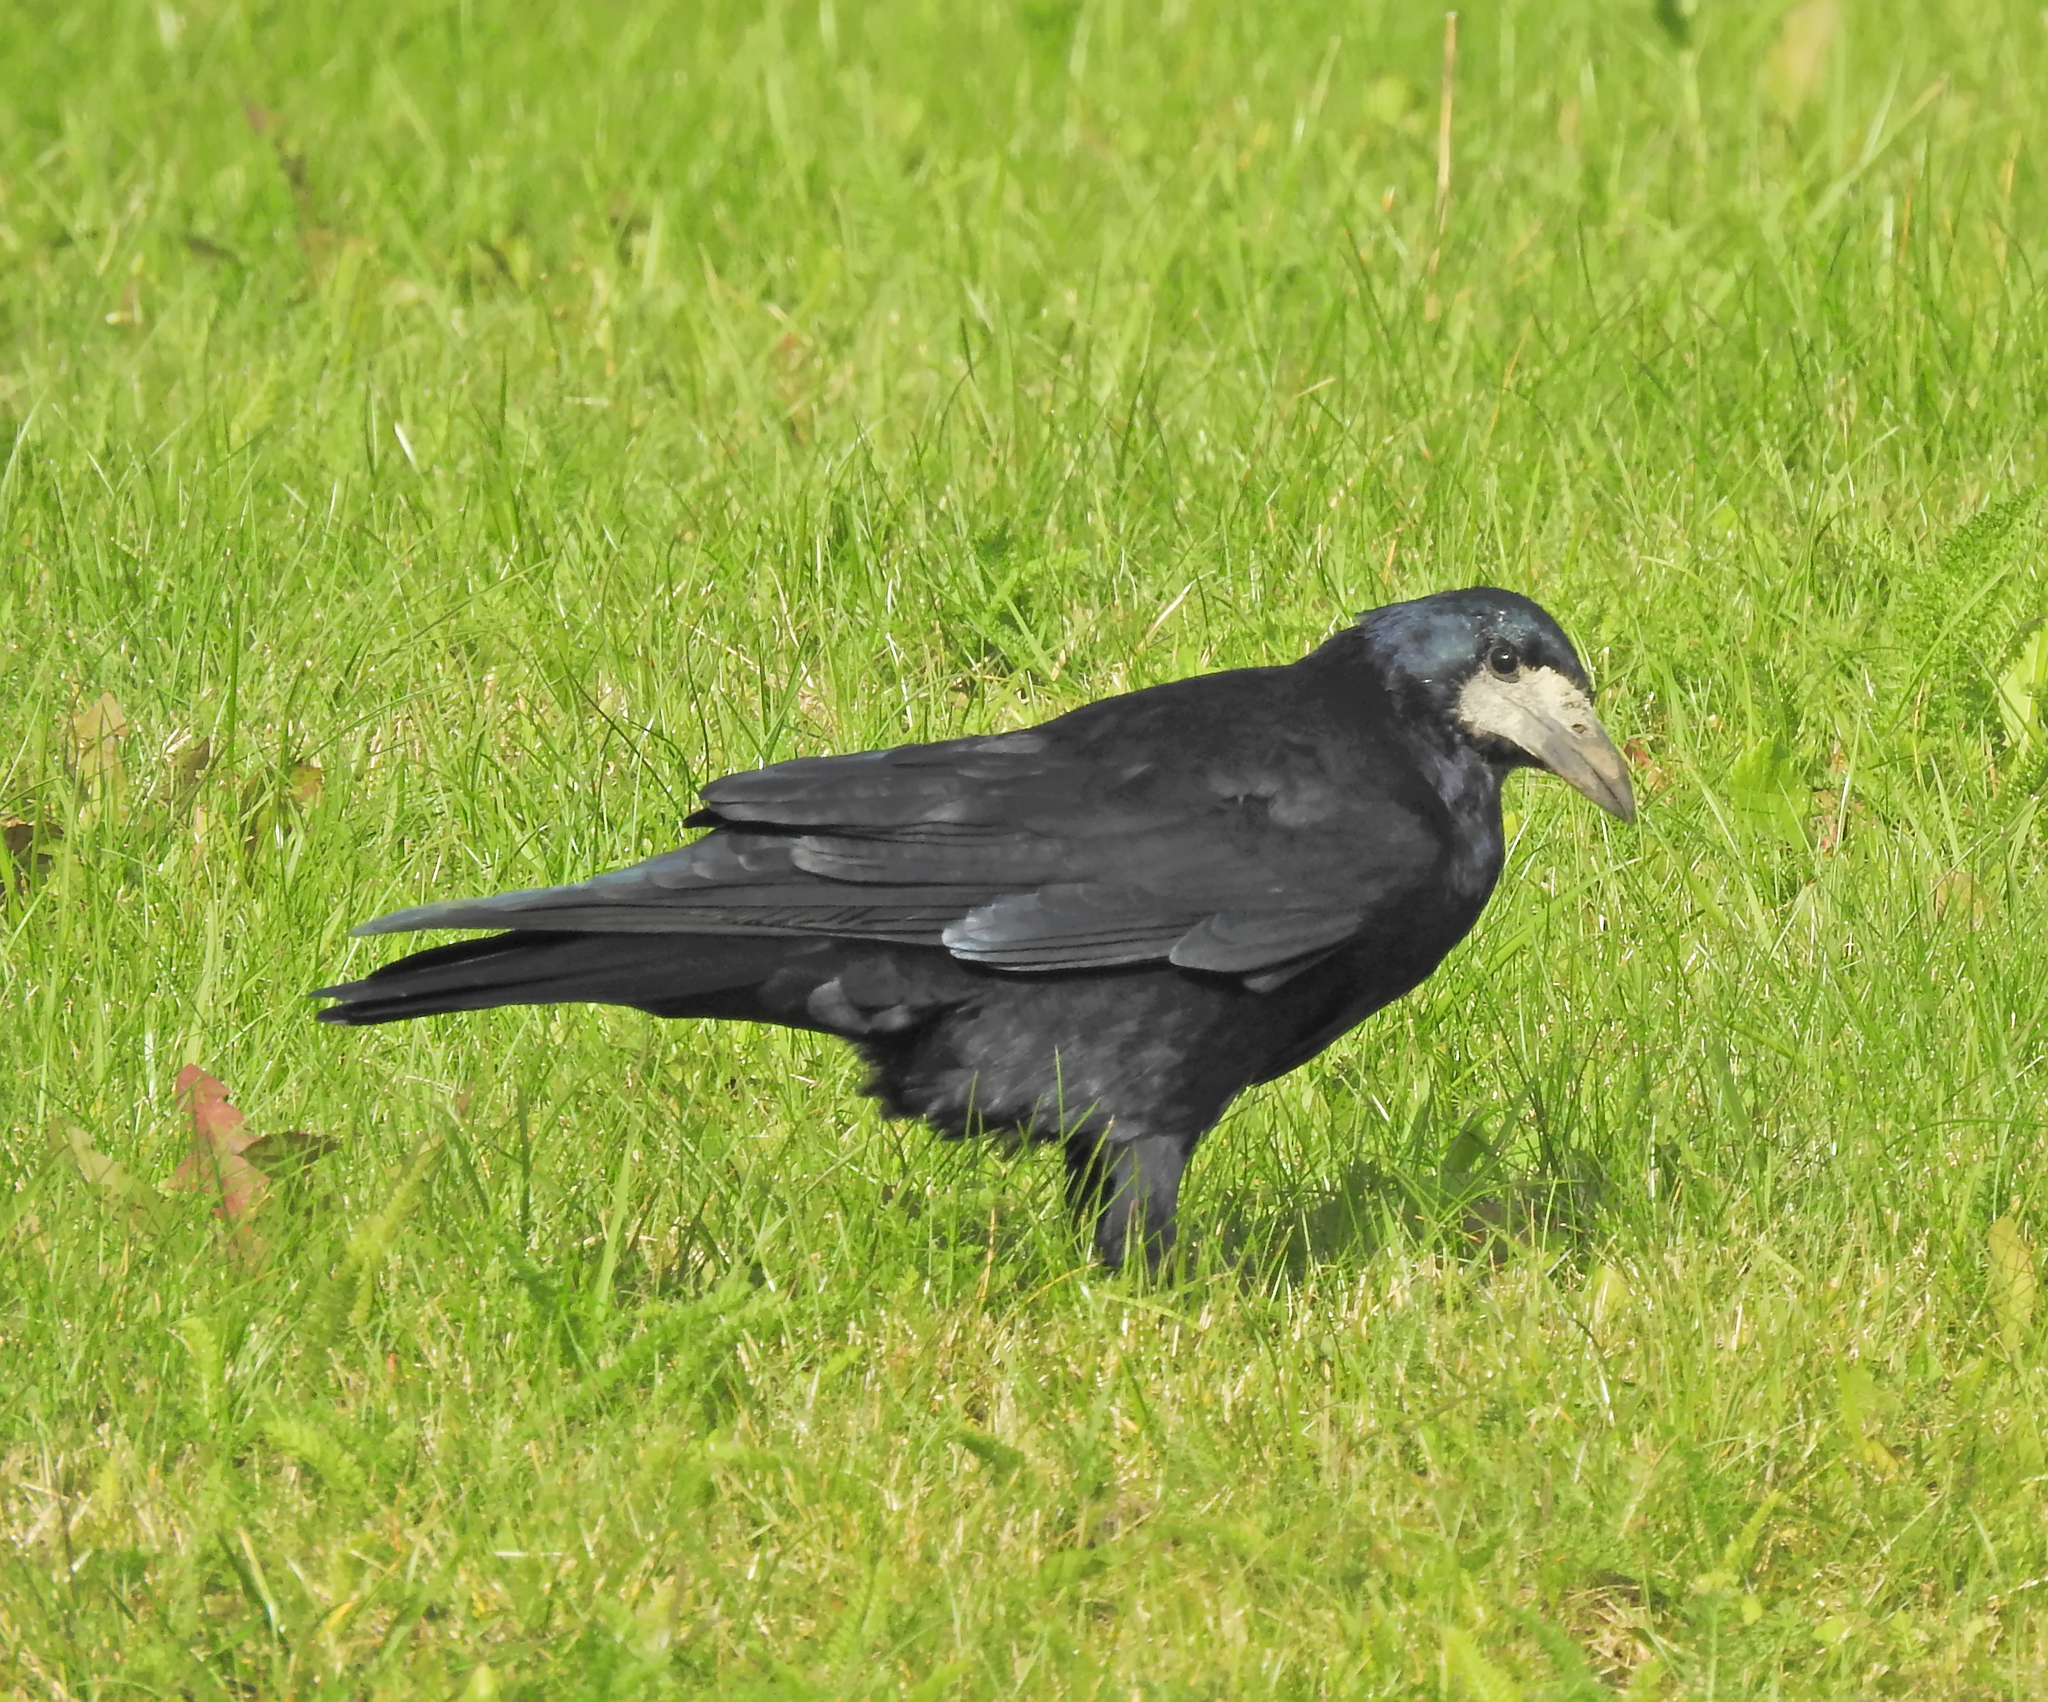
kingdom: Animalia
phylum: Chordata
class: Aves
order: Passeriformes
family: Corvidae
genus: Corvus
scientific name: Corvus frugilegus
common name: Rook
